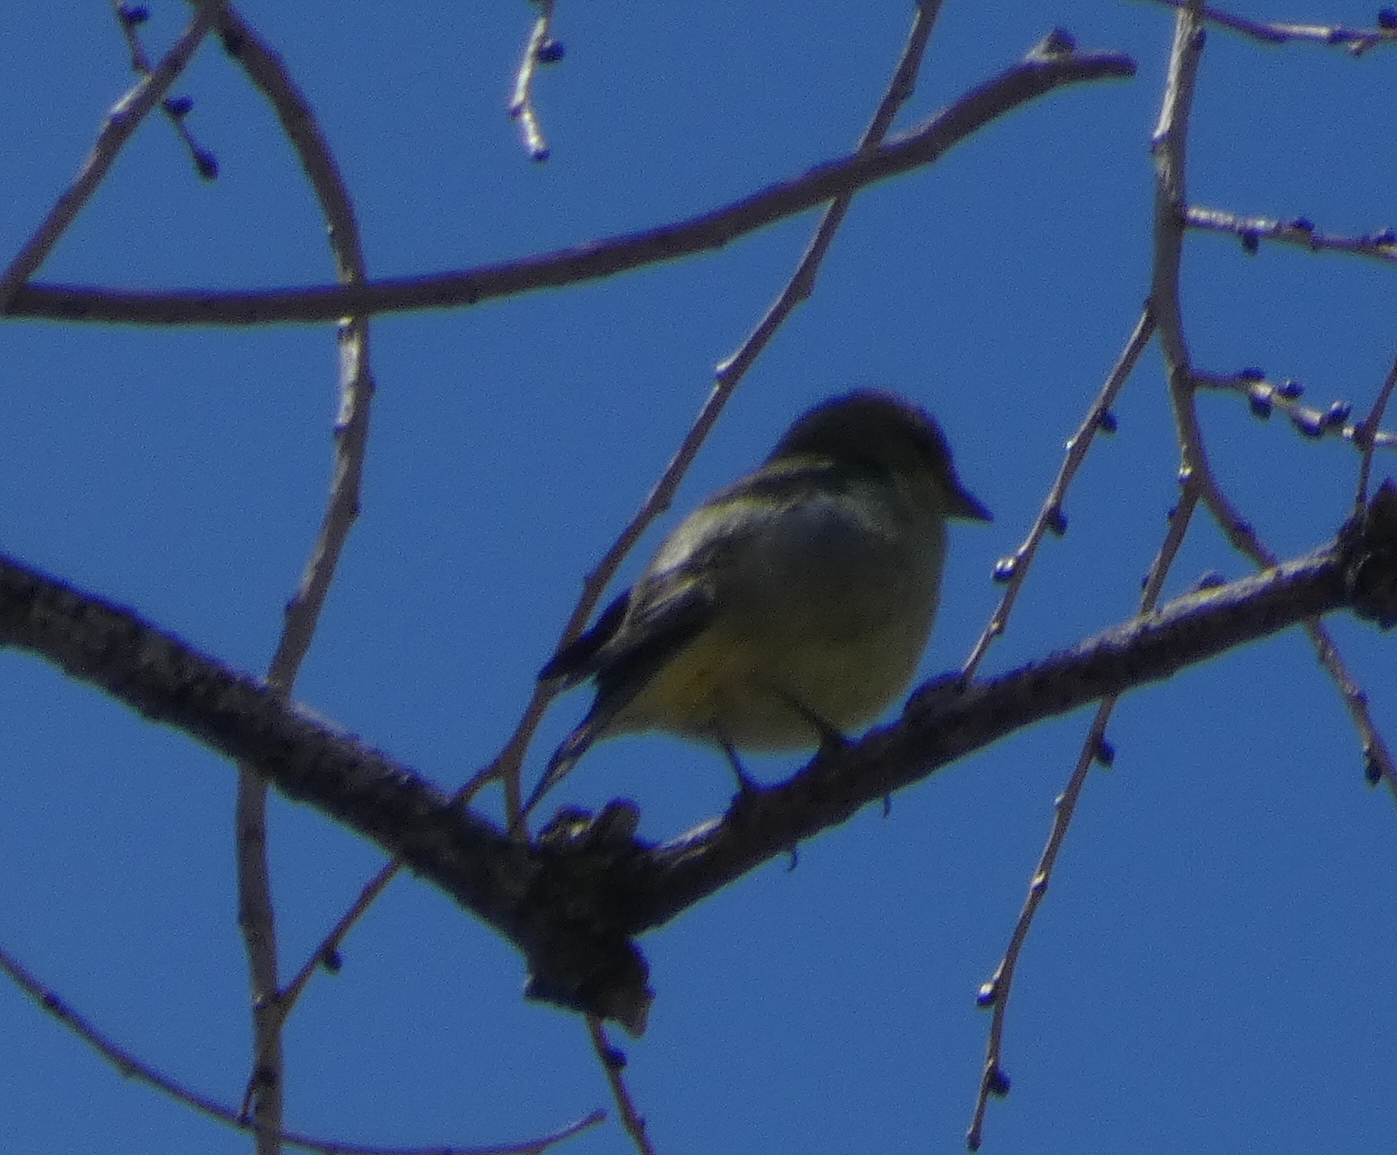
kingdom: Animalia
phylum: Chordata
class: Aves
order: Passeriformes
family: Fringillidae
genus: Spinus
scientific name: Spinus psaltria
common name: Lesser goldfinch
